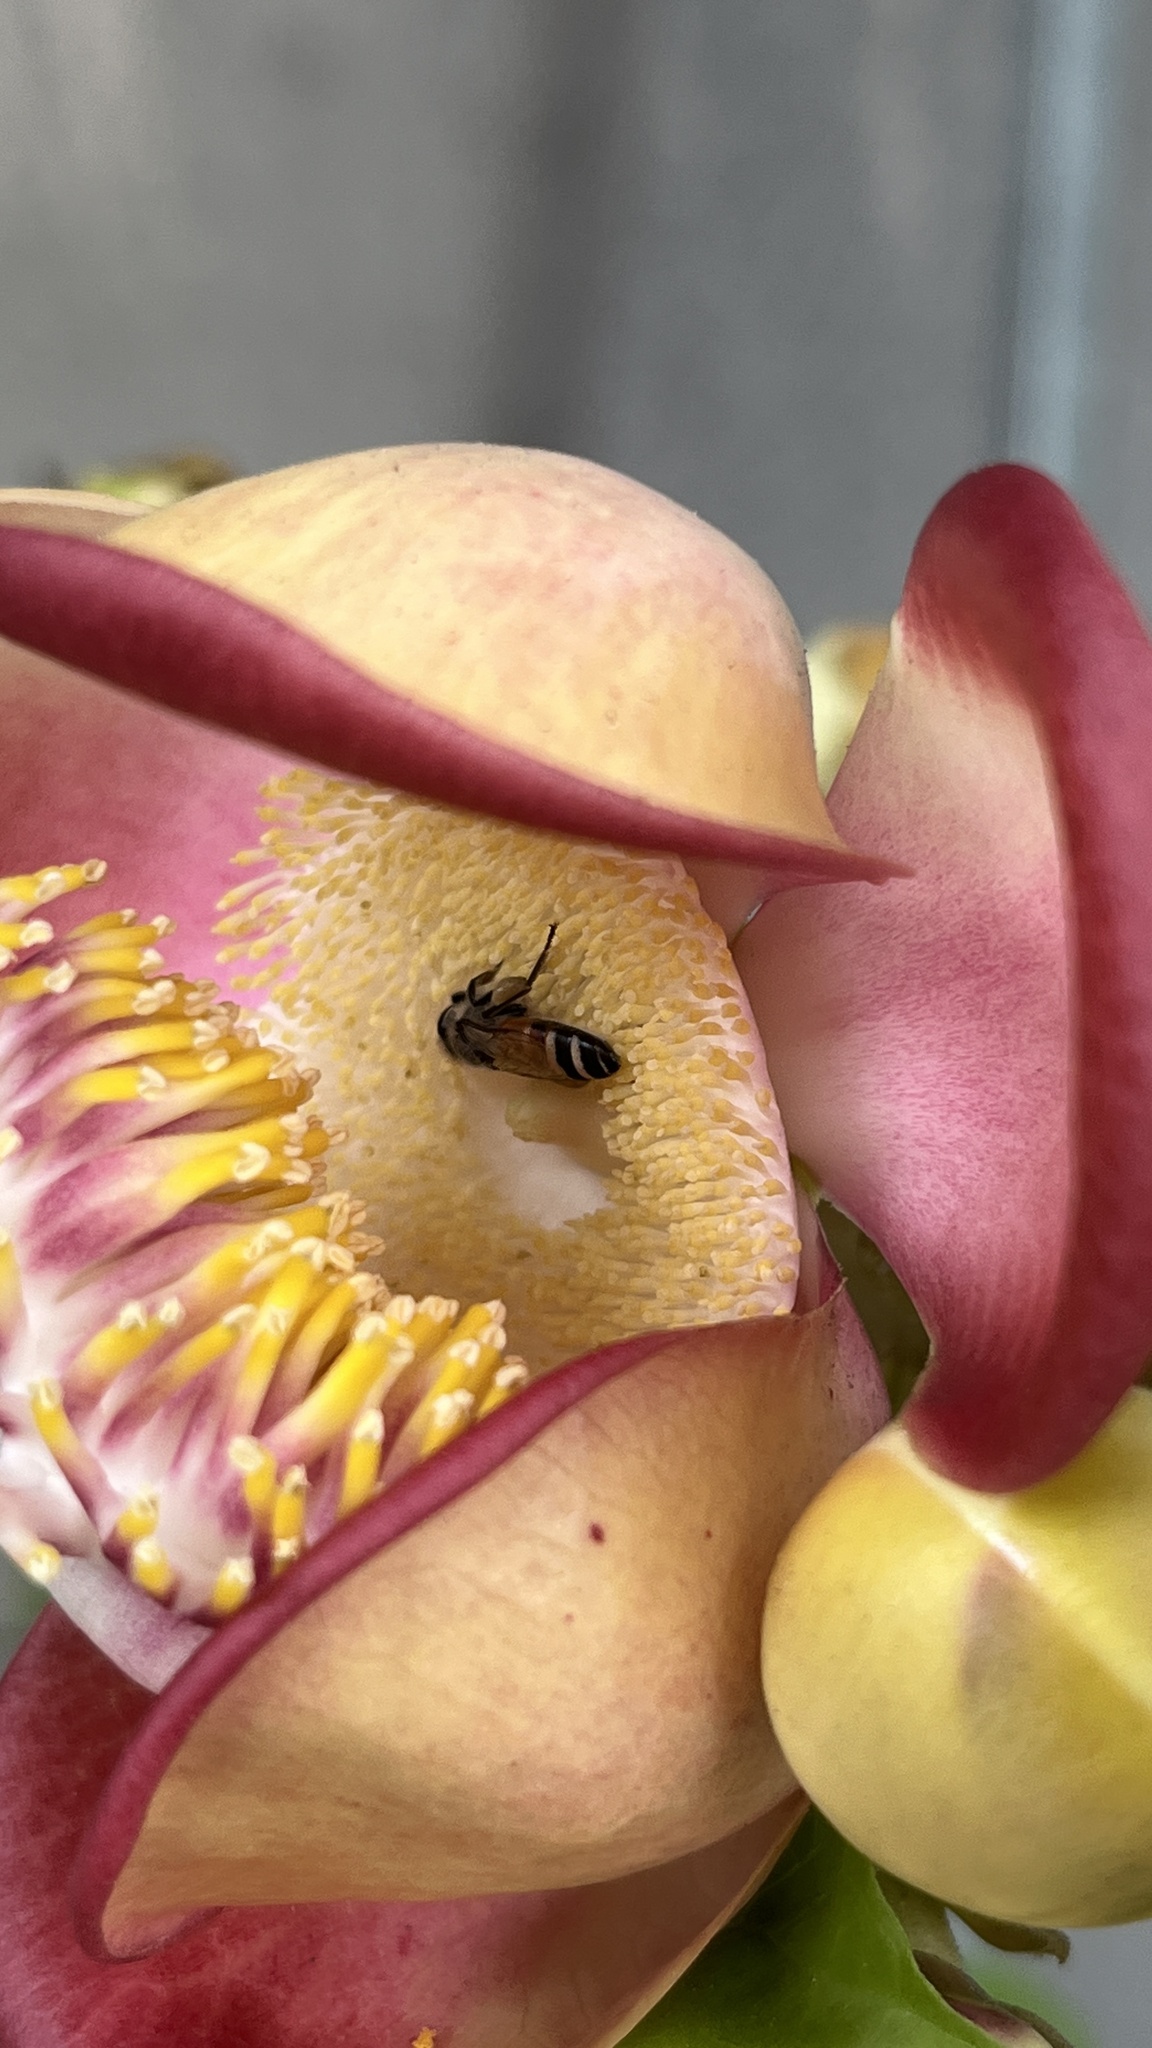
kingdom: Animalia
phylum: Arthropoda
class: Insecta
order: Hymenoptera
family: Apidae
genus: Apis
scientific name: Apis florea
